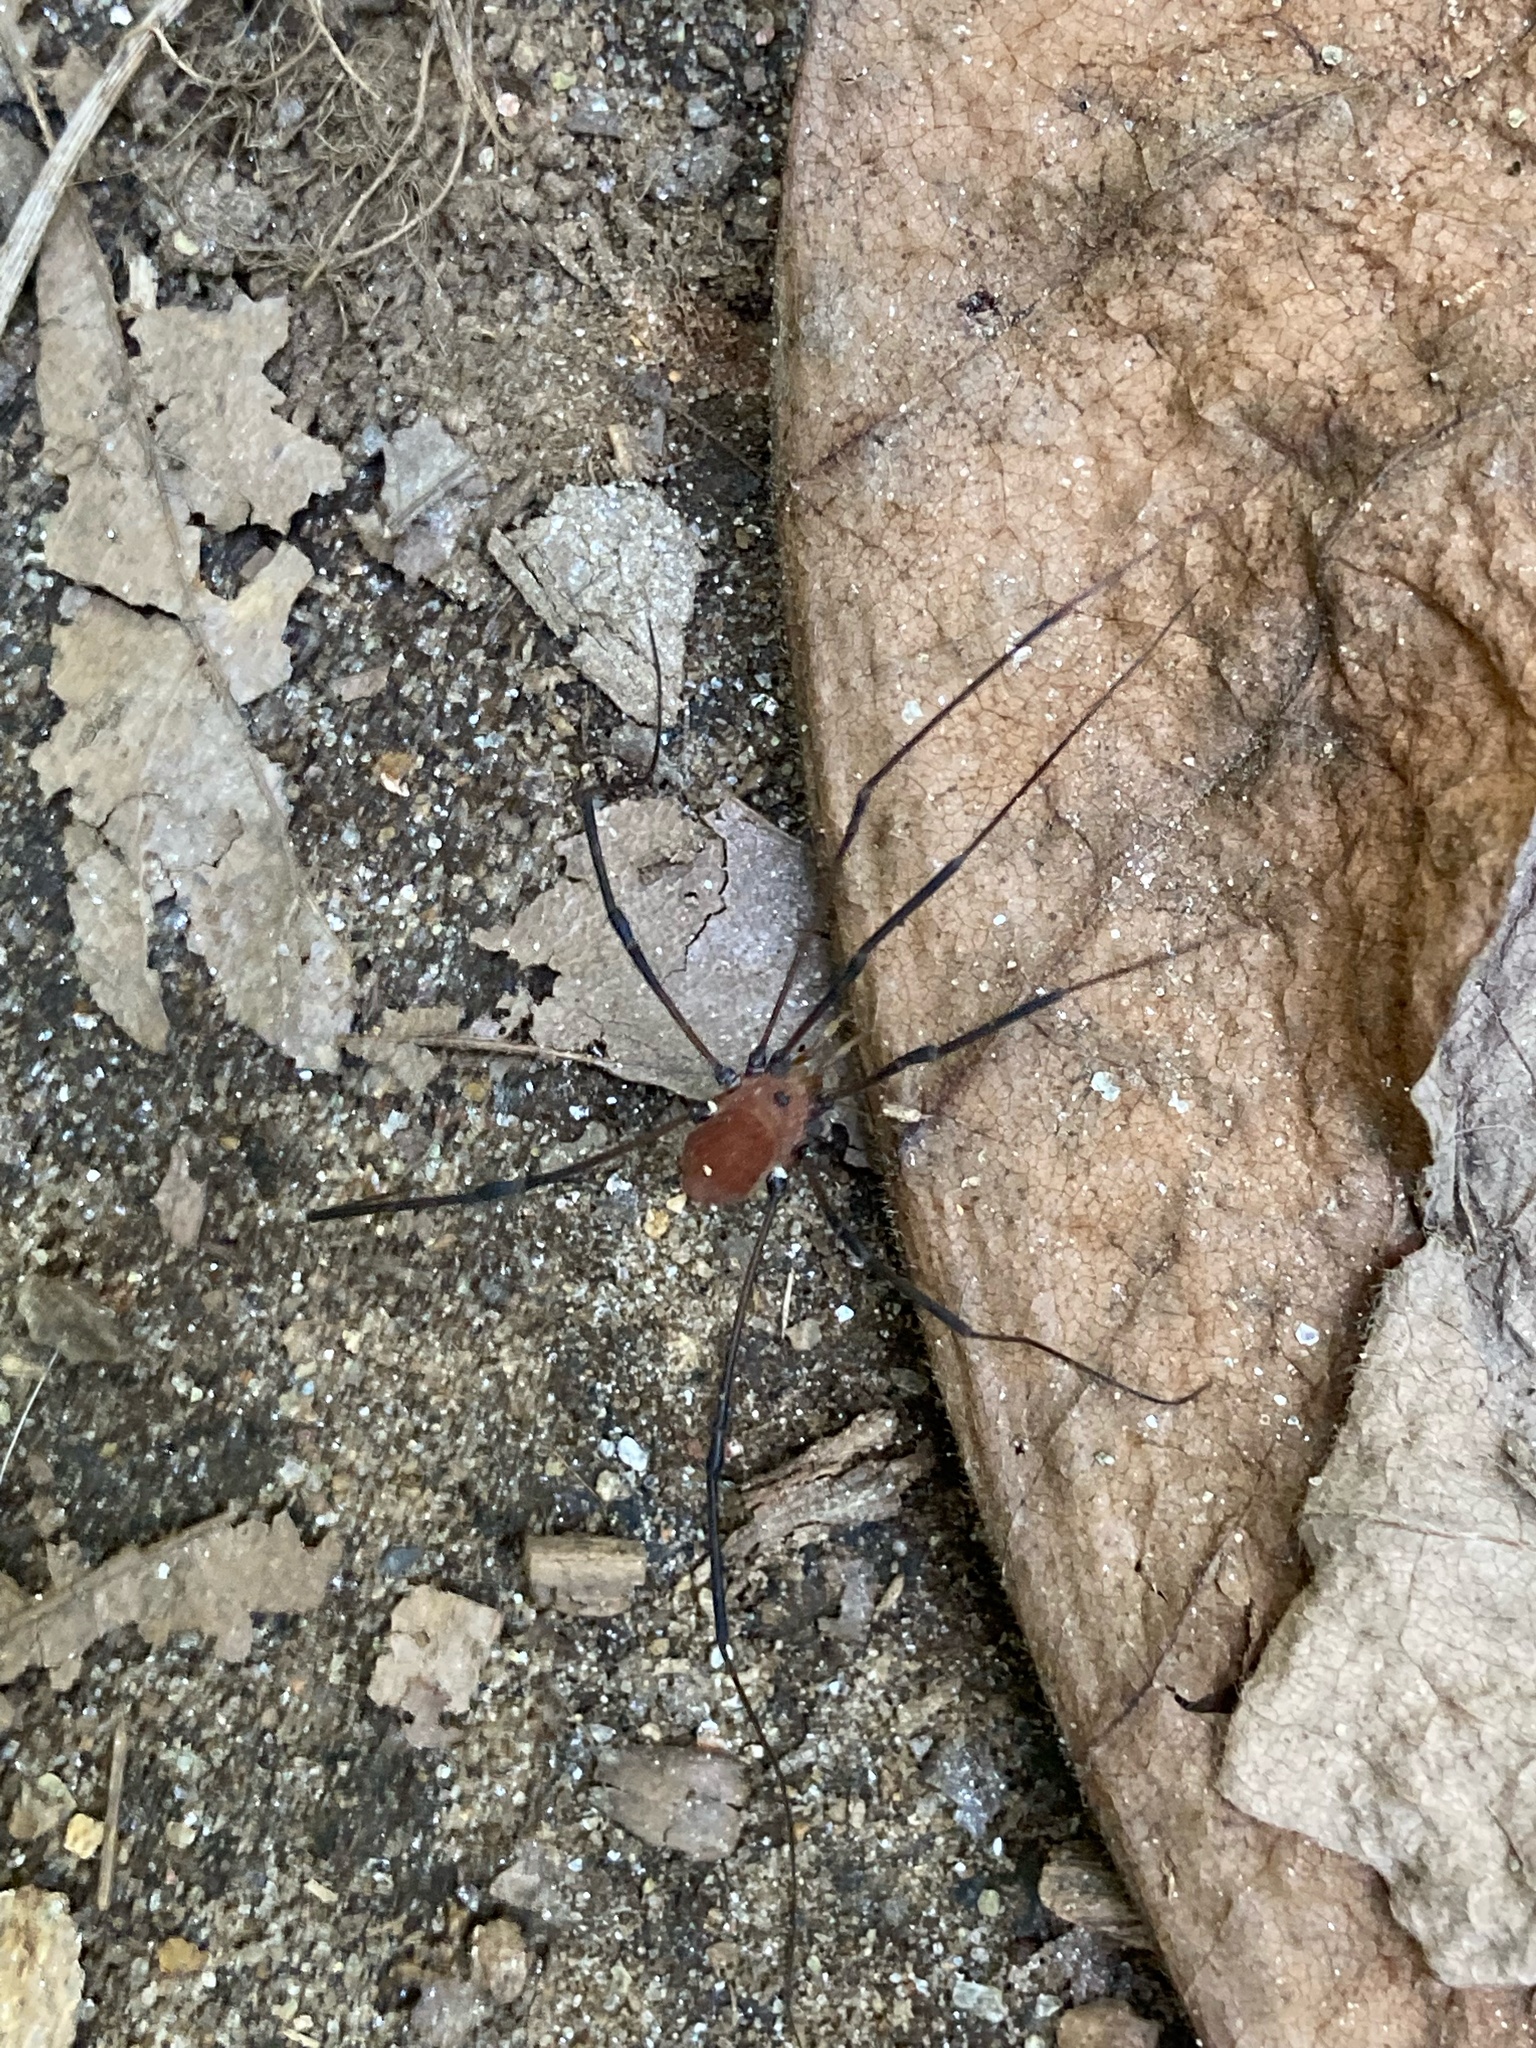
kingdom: Animalia
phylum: Arthropoda
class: Arachnida
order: Opiliones
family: Sclerosomatidae
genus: Leiobunum
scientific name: Leiobunum verrucosum
